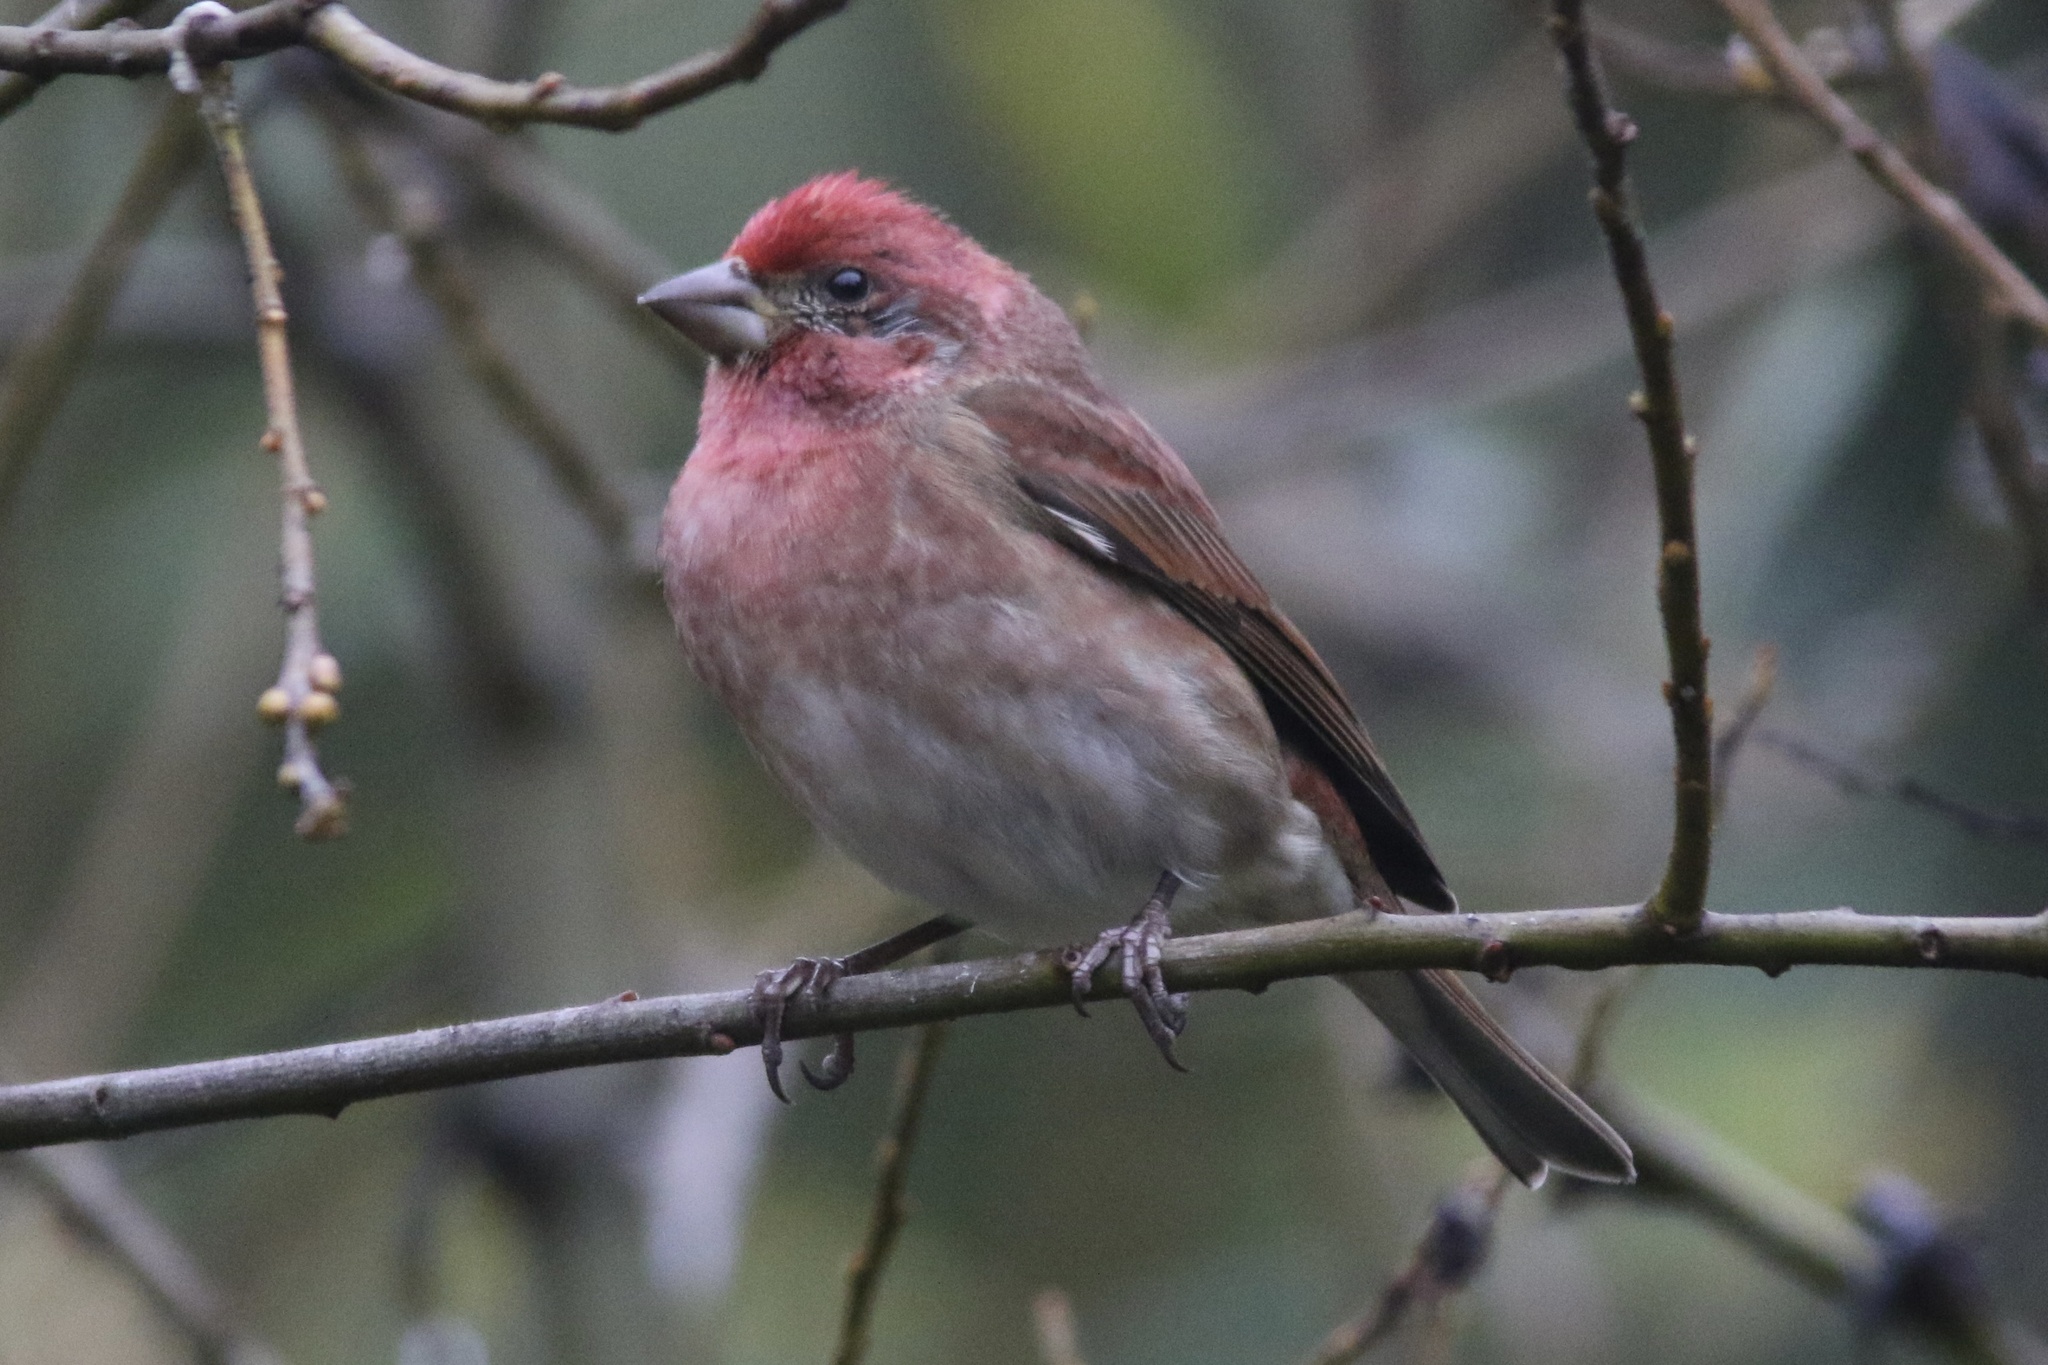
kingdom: Animalia
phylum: Chordata
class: Aves
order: Passeriformes
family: Fringillidae
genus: Haemorhous
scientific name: Haemorhous purpureus
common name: Purple finch
